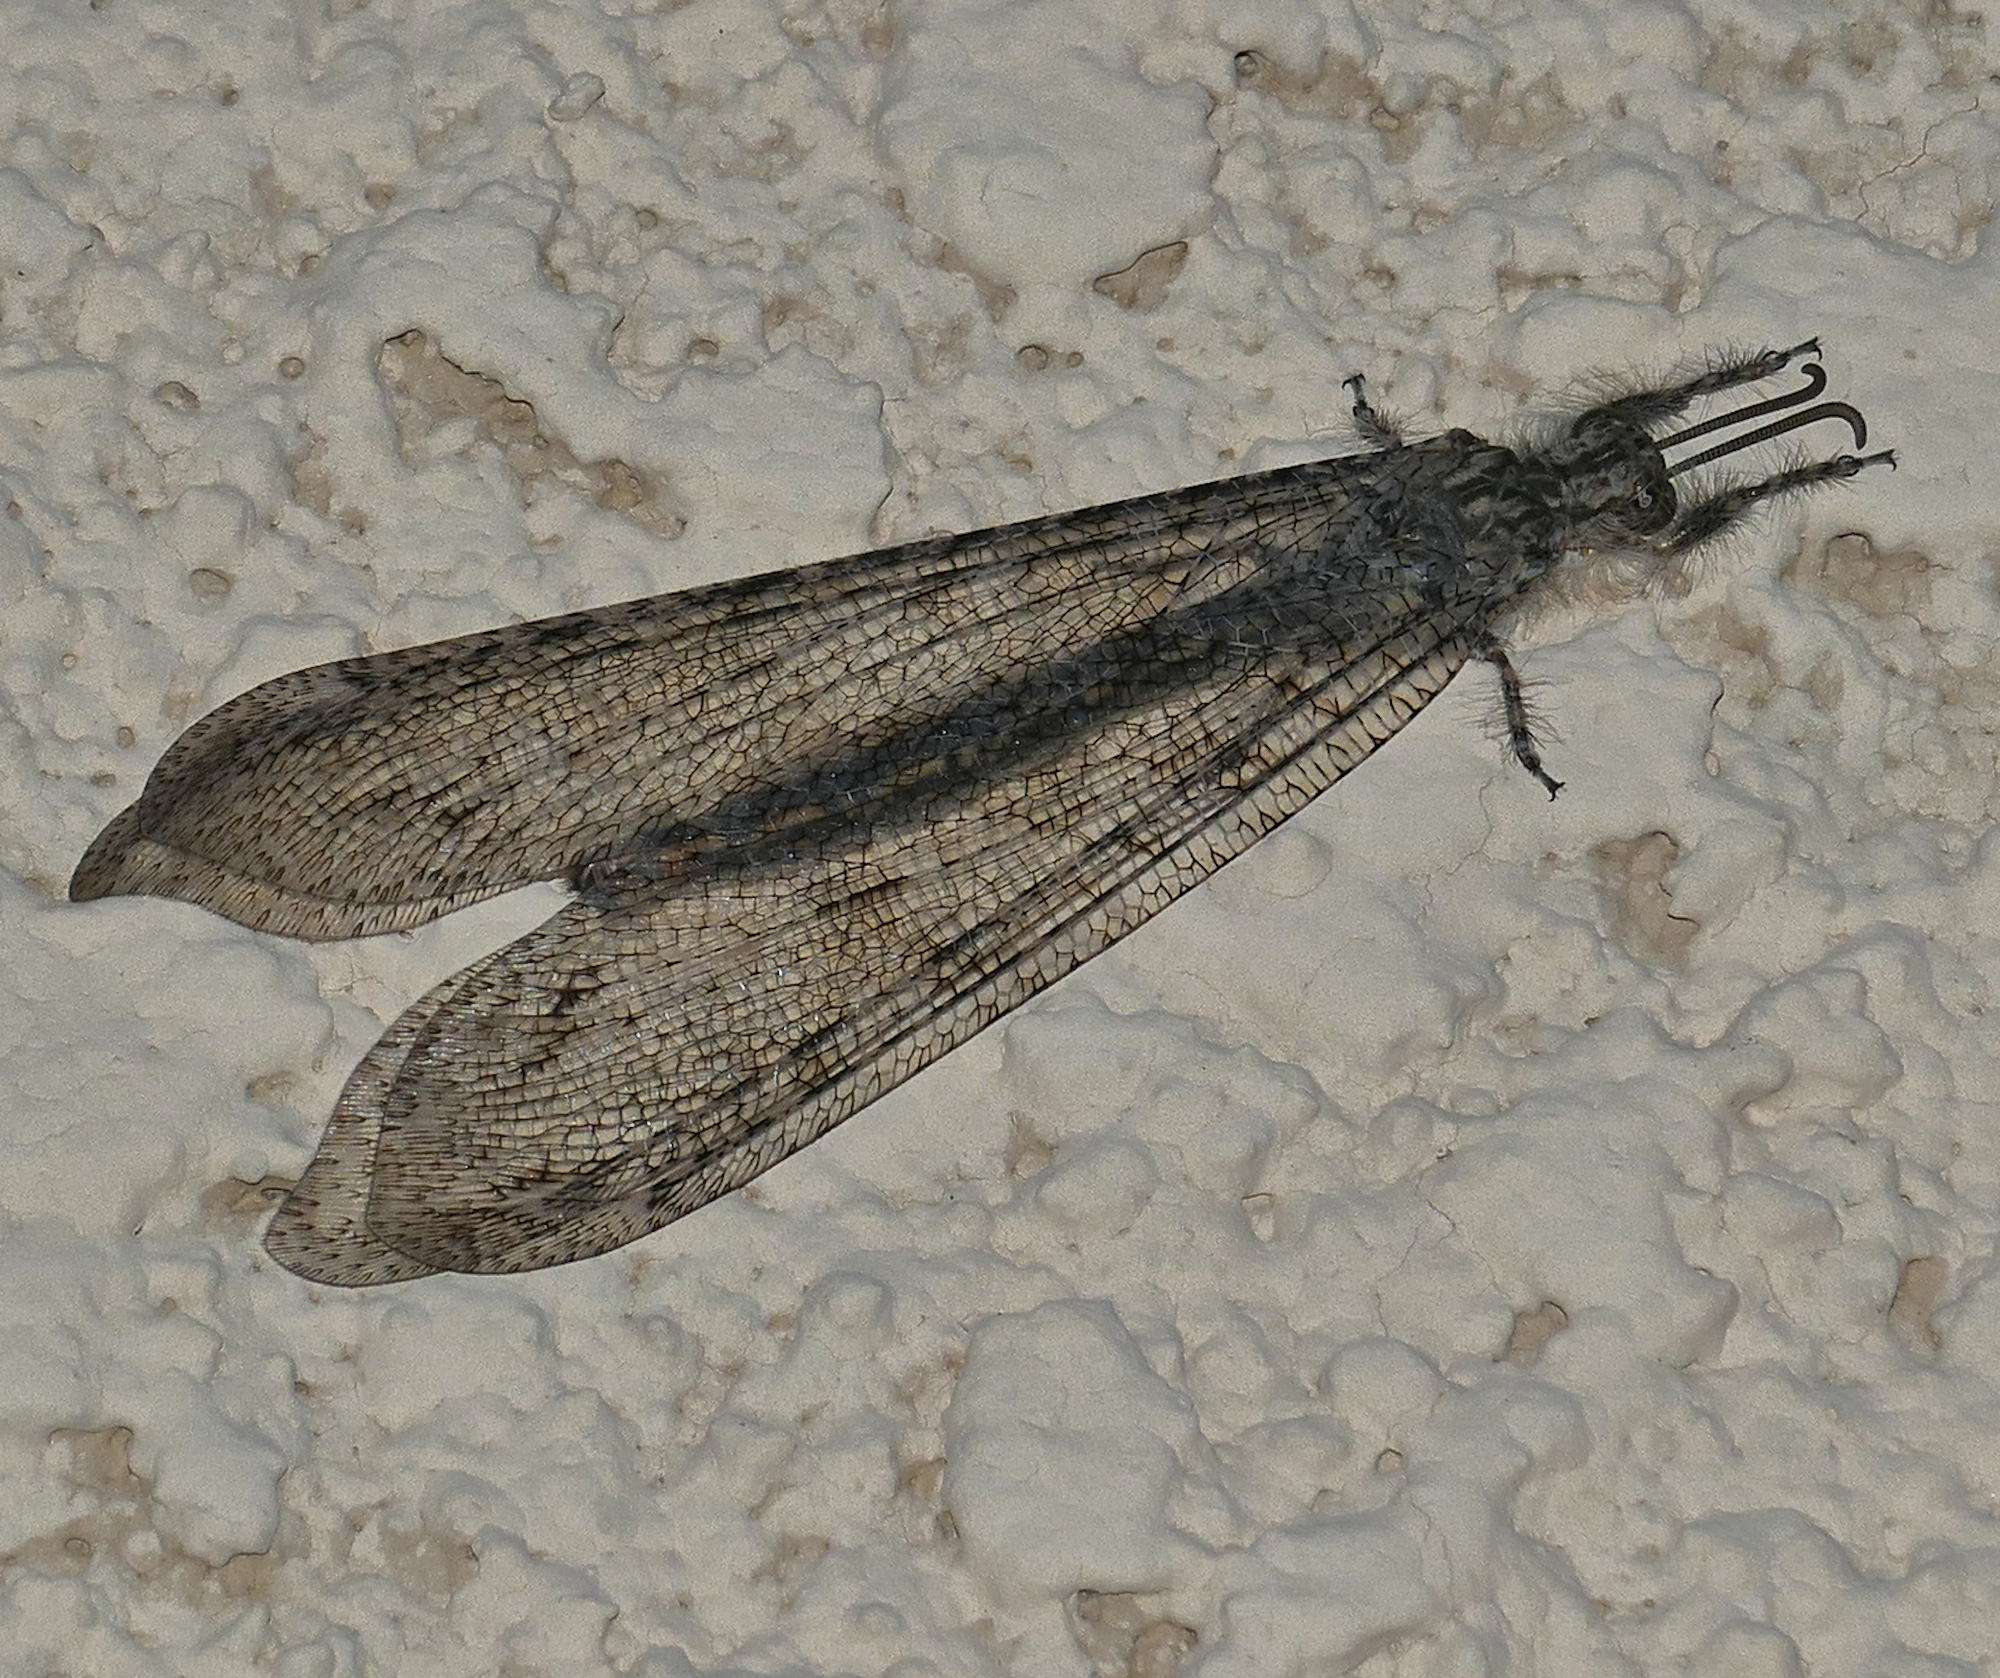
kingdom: Animalia
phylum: Arthropoda
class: Insecta
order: Neuroptera
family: Myrmeleontidae
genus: Vella
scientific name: Vella fallax
